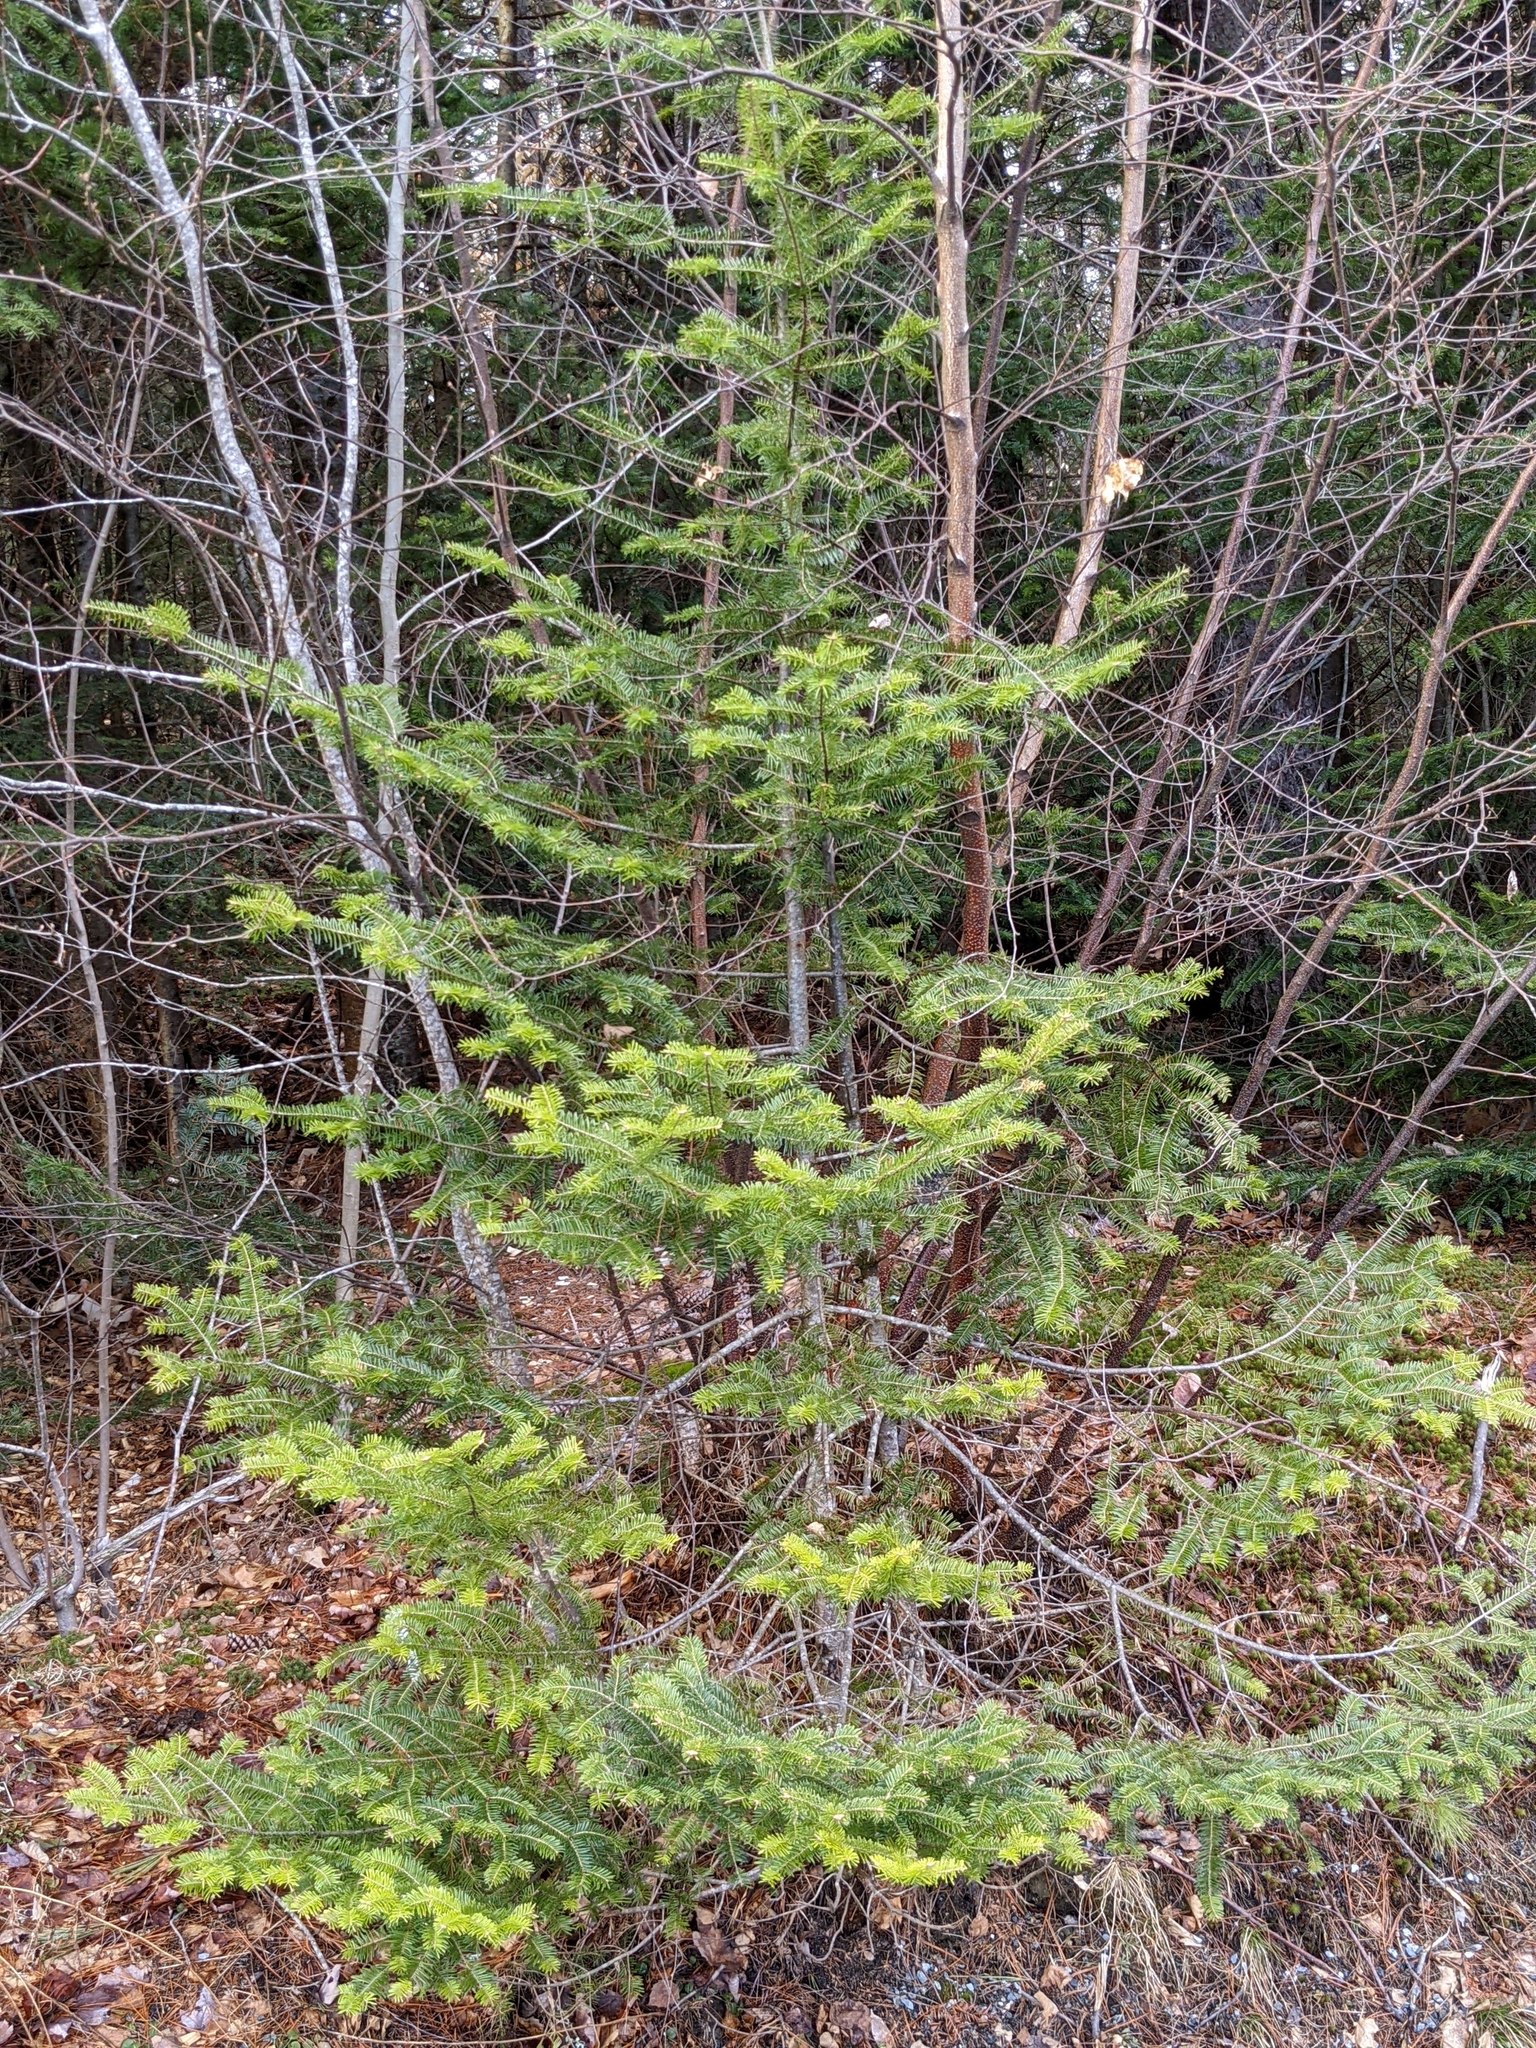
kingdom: Plantae
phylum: Tracheophyta
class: Pinopsida
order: Pinales
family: Pinaceae
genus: Abies
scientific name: Abies balsamea
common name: Balsam fir
